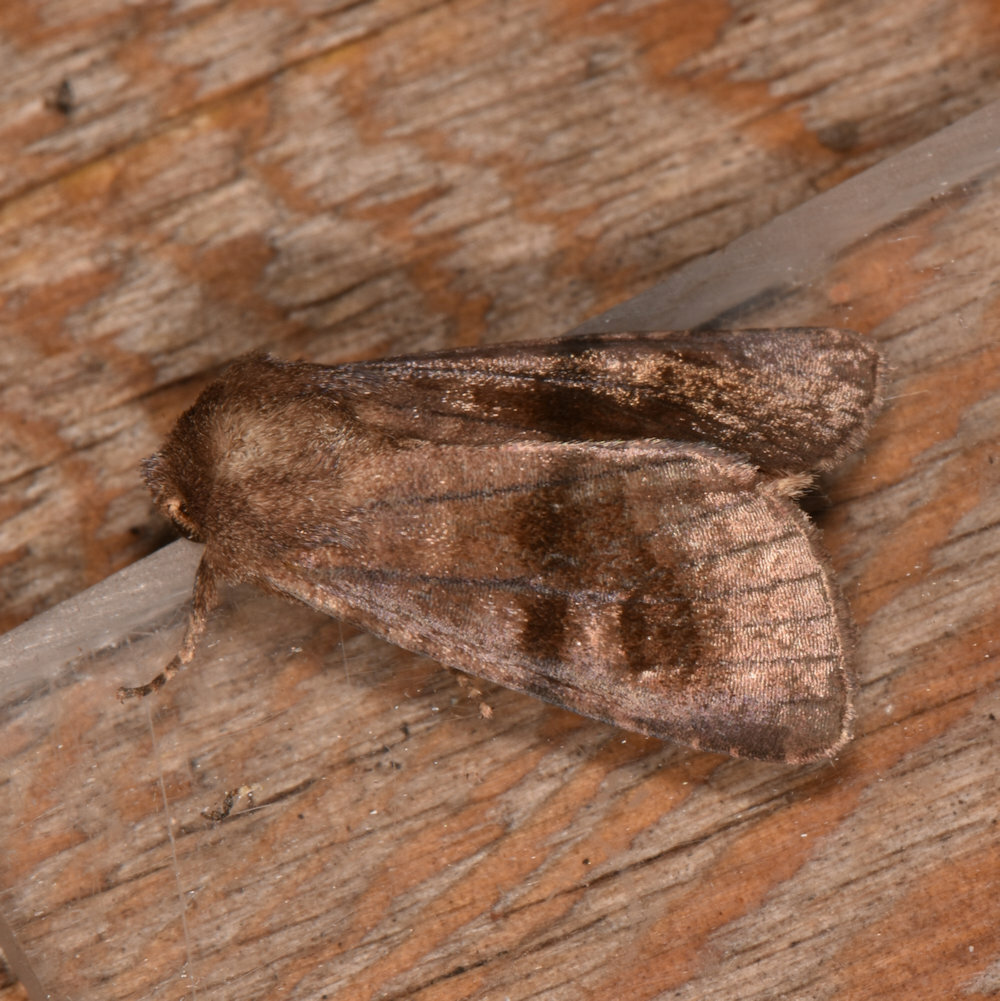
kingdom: Animalia
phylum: Arthropoda
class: Insecta
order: Lepidoptera
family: Noctuidae
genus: Nephelodes
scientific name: Nephelodes minians
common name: Bronzed cutworm
